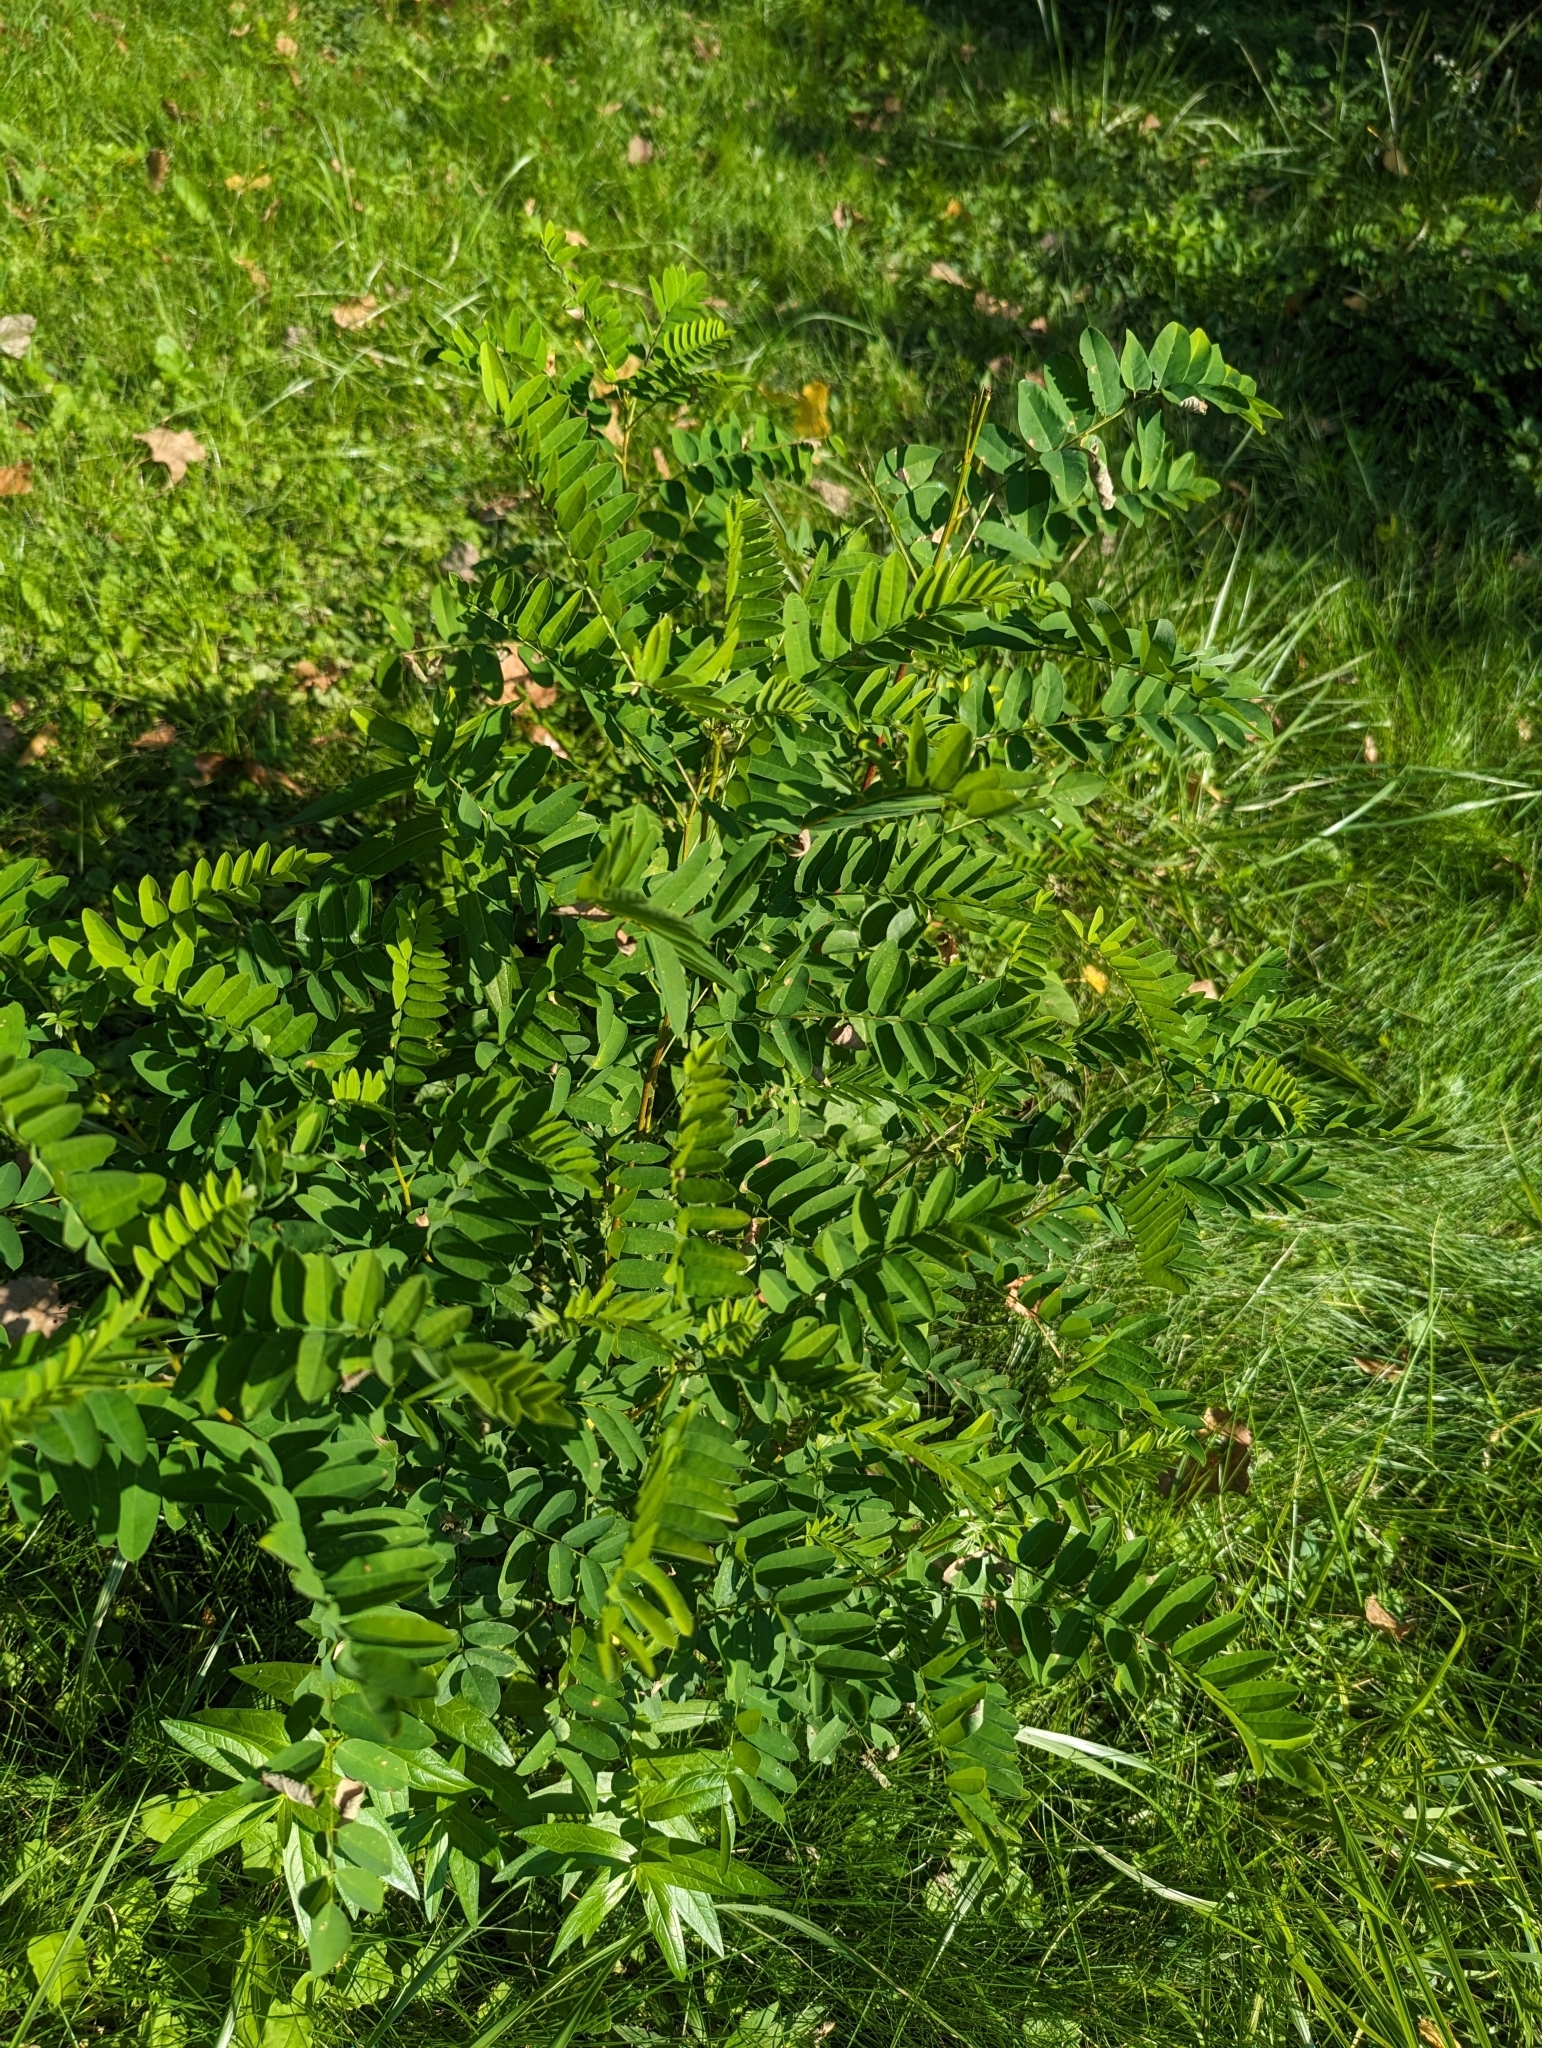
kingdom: Plantae
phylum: Tracheophyta
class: Magnoliopsida
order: Fabales
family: Fabaceae
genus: Robinia
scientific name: Robinia pseudoacacia
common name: Black locust
